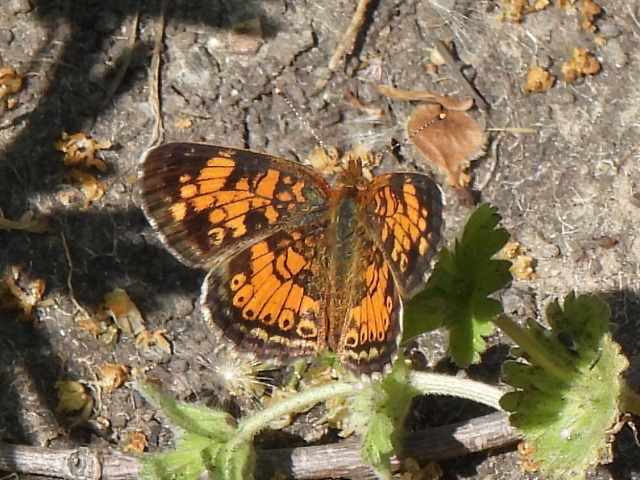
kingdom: Animalia
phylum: Arthropoda
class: Insecta
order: Lepidoptera
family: Nymphalidae
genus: Phyciodes
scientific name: Phyciodes tharos
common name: Pearl crescent
